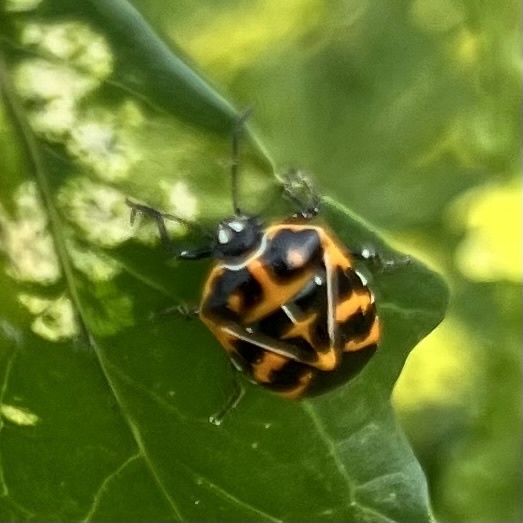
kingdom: Animalia
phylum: Arthropoda
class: Insecta
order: Hemiptera
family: Pentatomidae
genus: Murgantia
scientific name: Murgantia histrionica
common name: Harlequin bug
